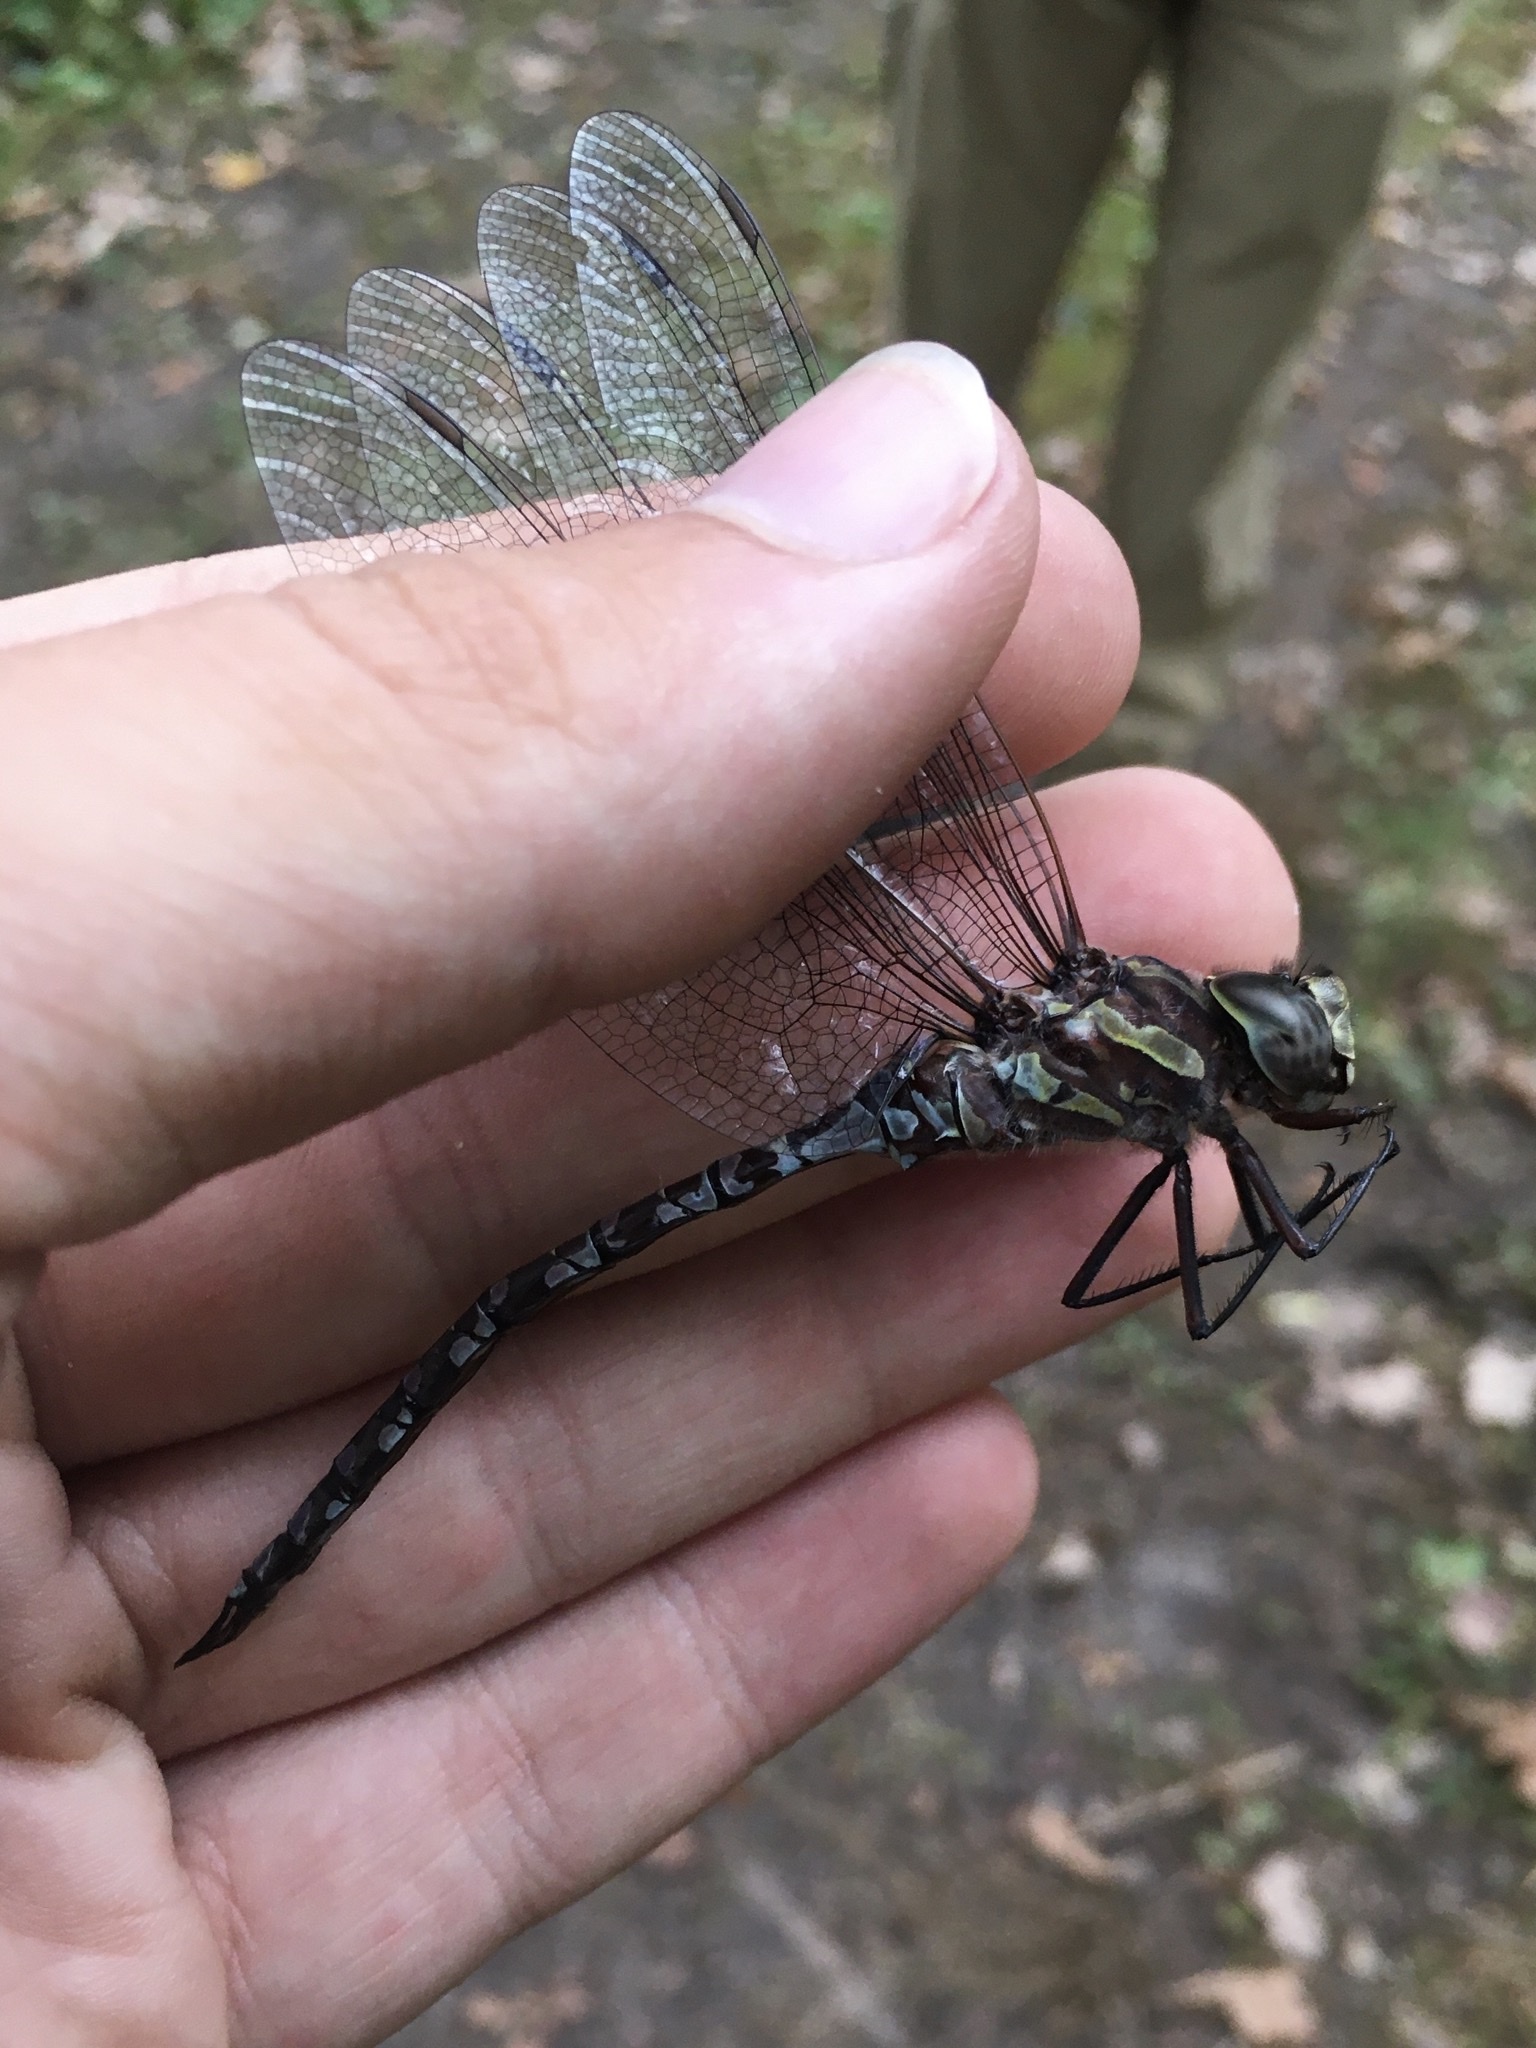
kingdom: Animalia
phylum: Arthropoda
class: Insecta
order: Odonata
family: Aeshnidae
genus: Aeshna
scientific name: Aeshna verticalis
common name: Green-striped darner
